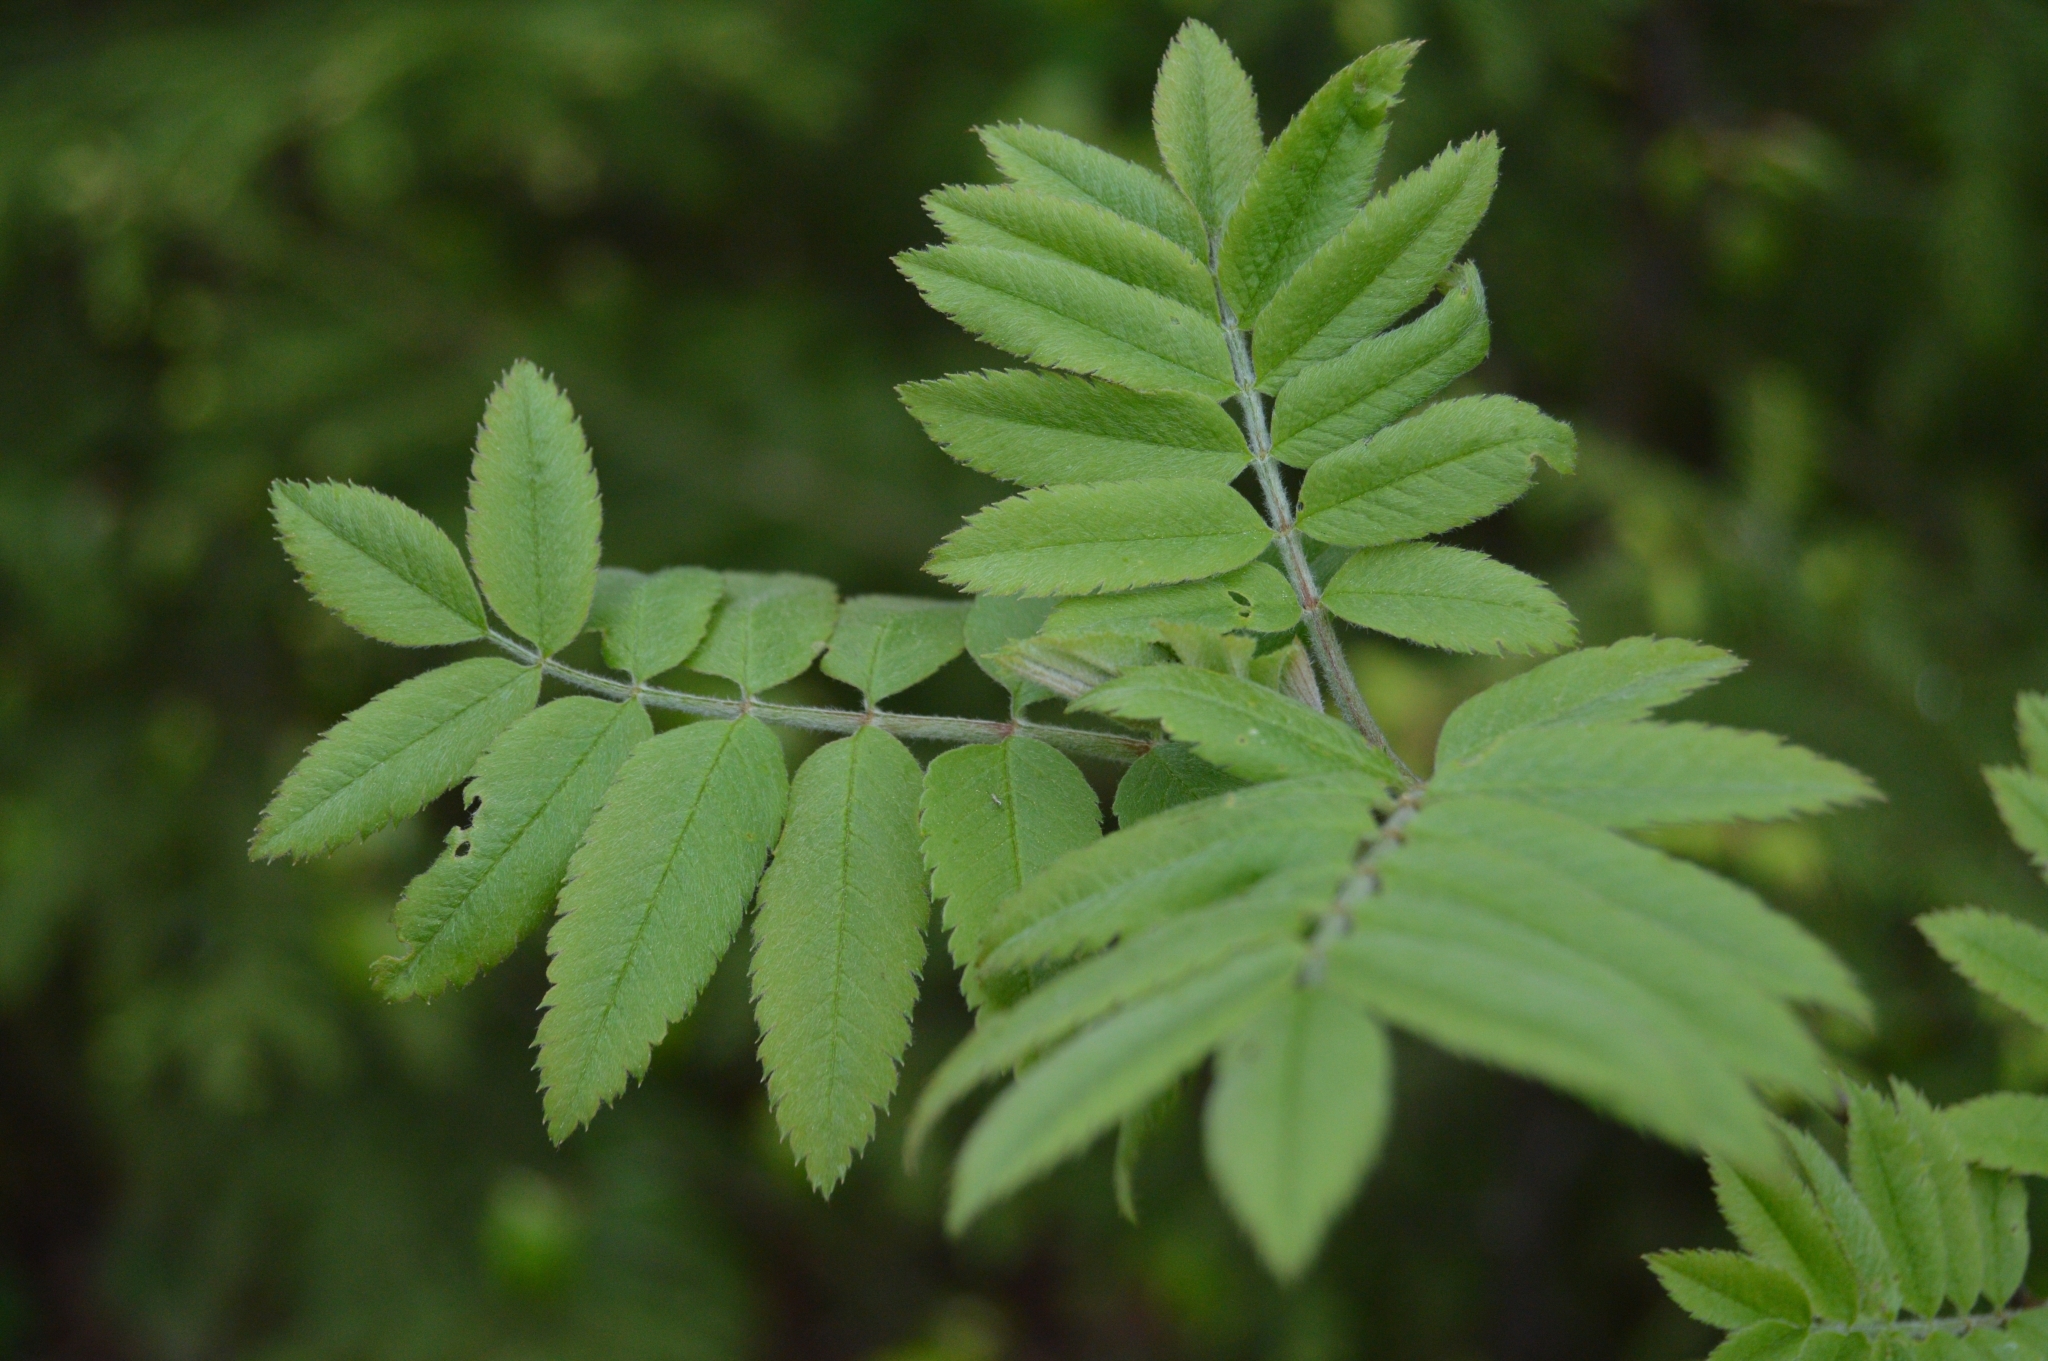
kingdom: Plantae
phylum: Tracheophyta
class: Magnoliopsida
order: Rosales
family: Rosaceae
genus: Sorbus
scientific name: Sorbus aucuparia
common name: Rowan
